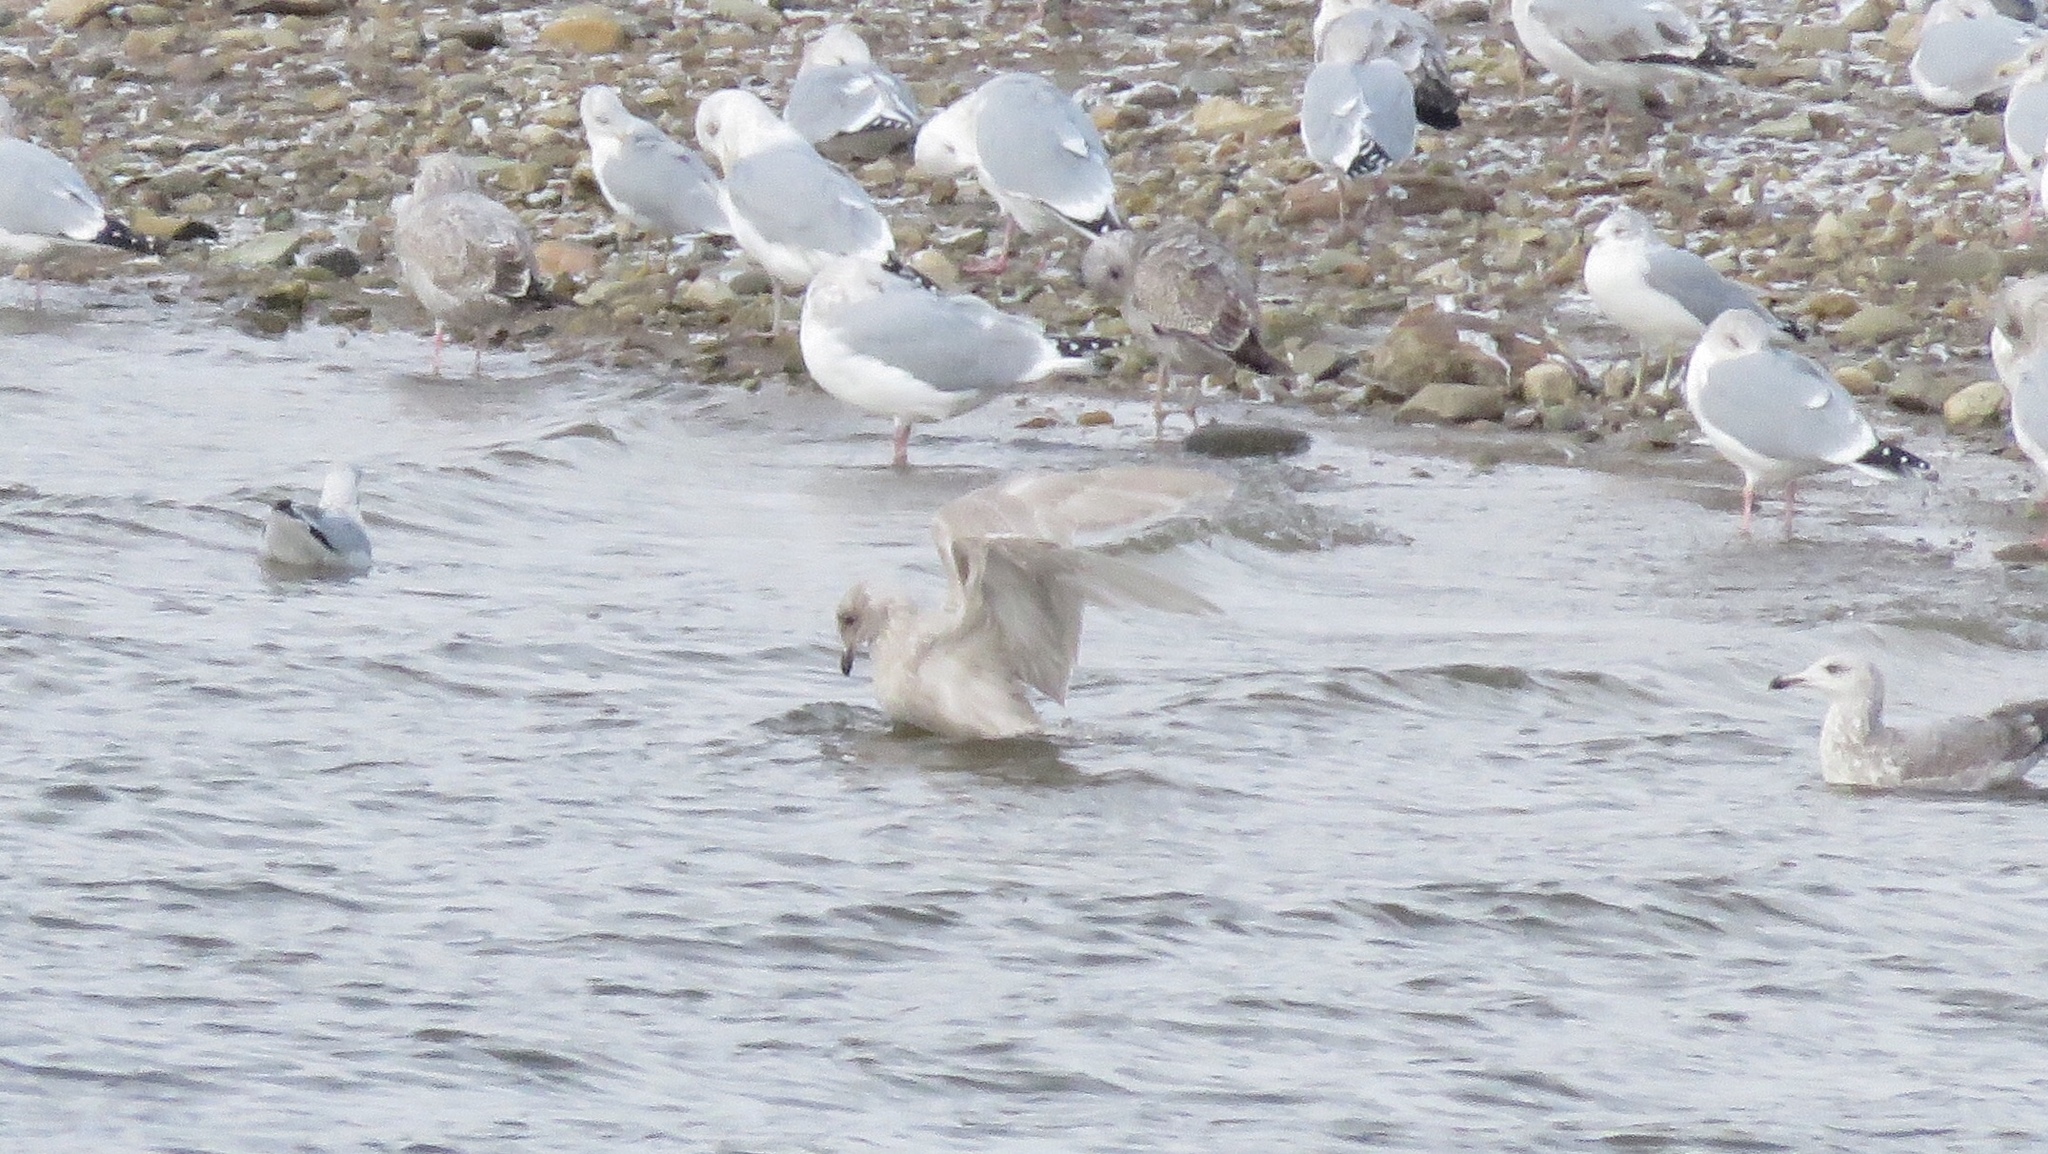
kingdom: Animalia
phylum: Chordata
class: Aves
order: Charadriiformes
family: Laridae
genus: Larus
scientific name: Larus glaucoides
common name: Iceland gull
